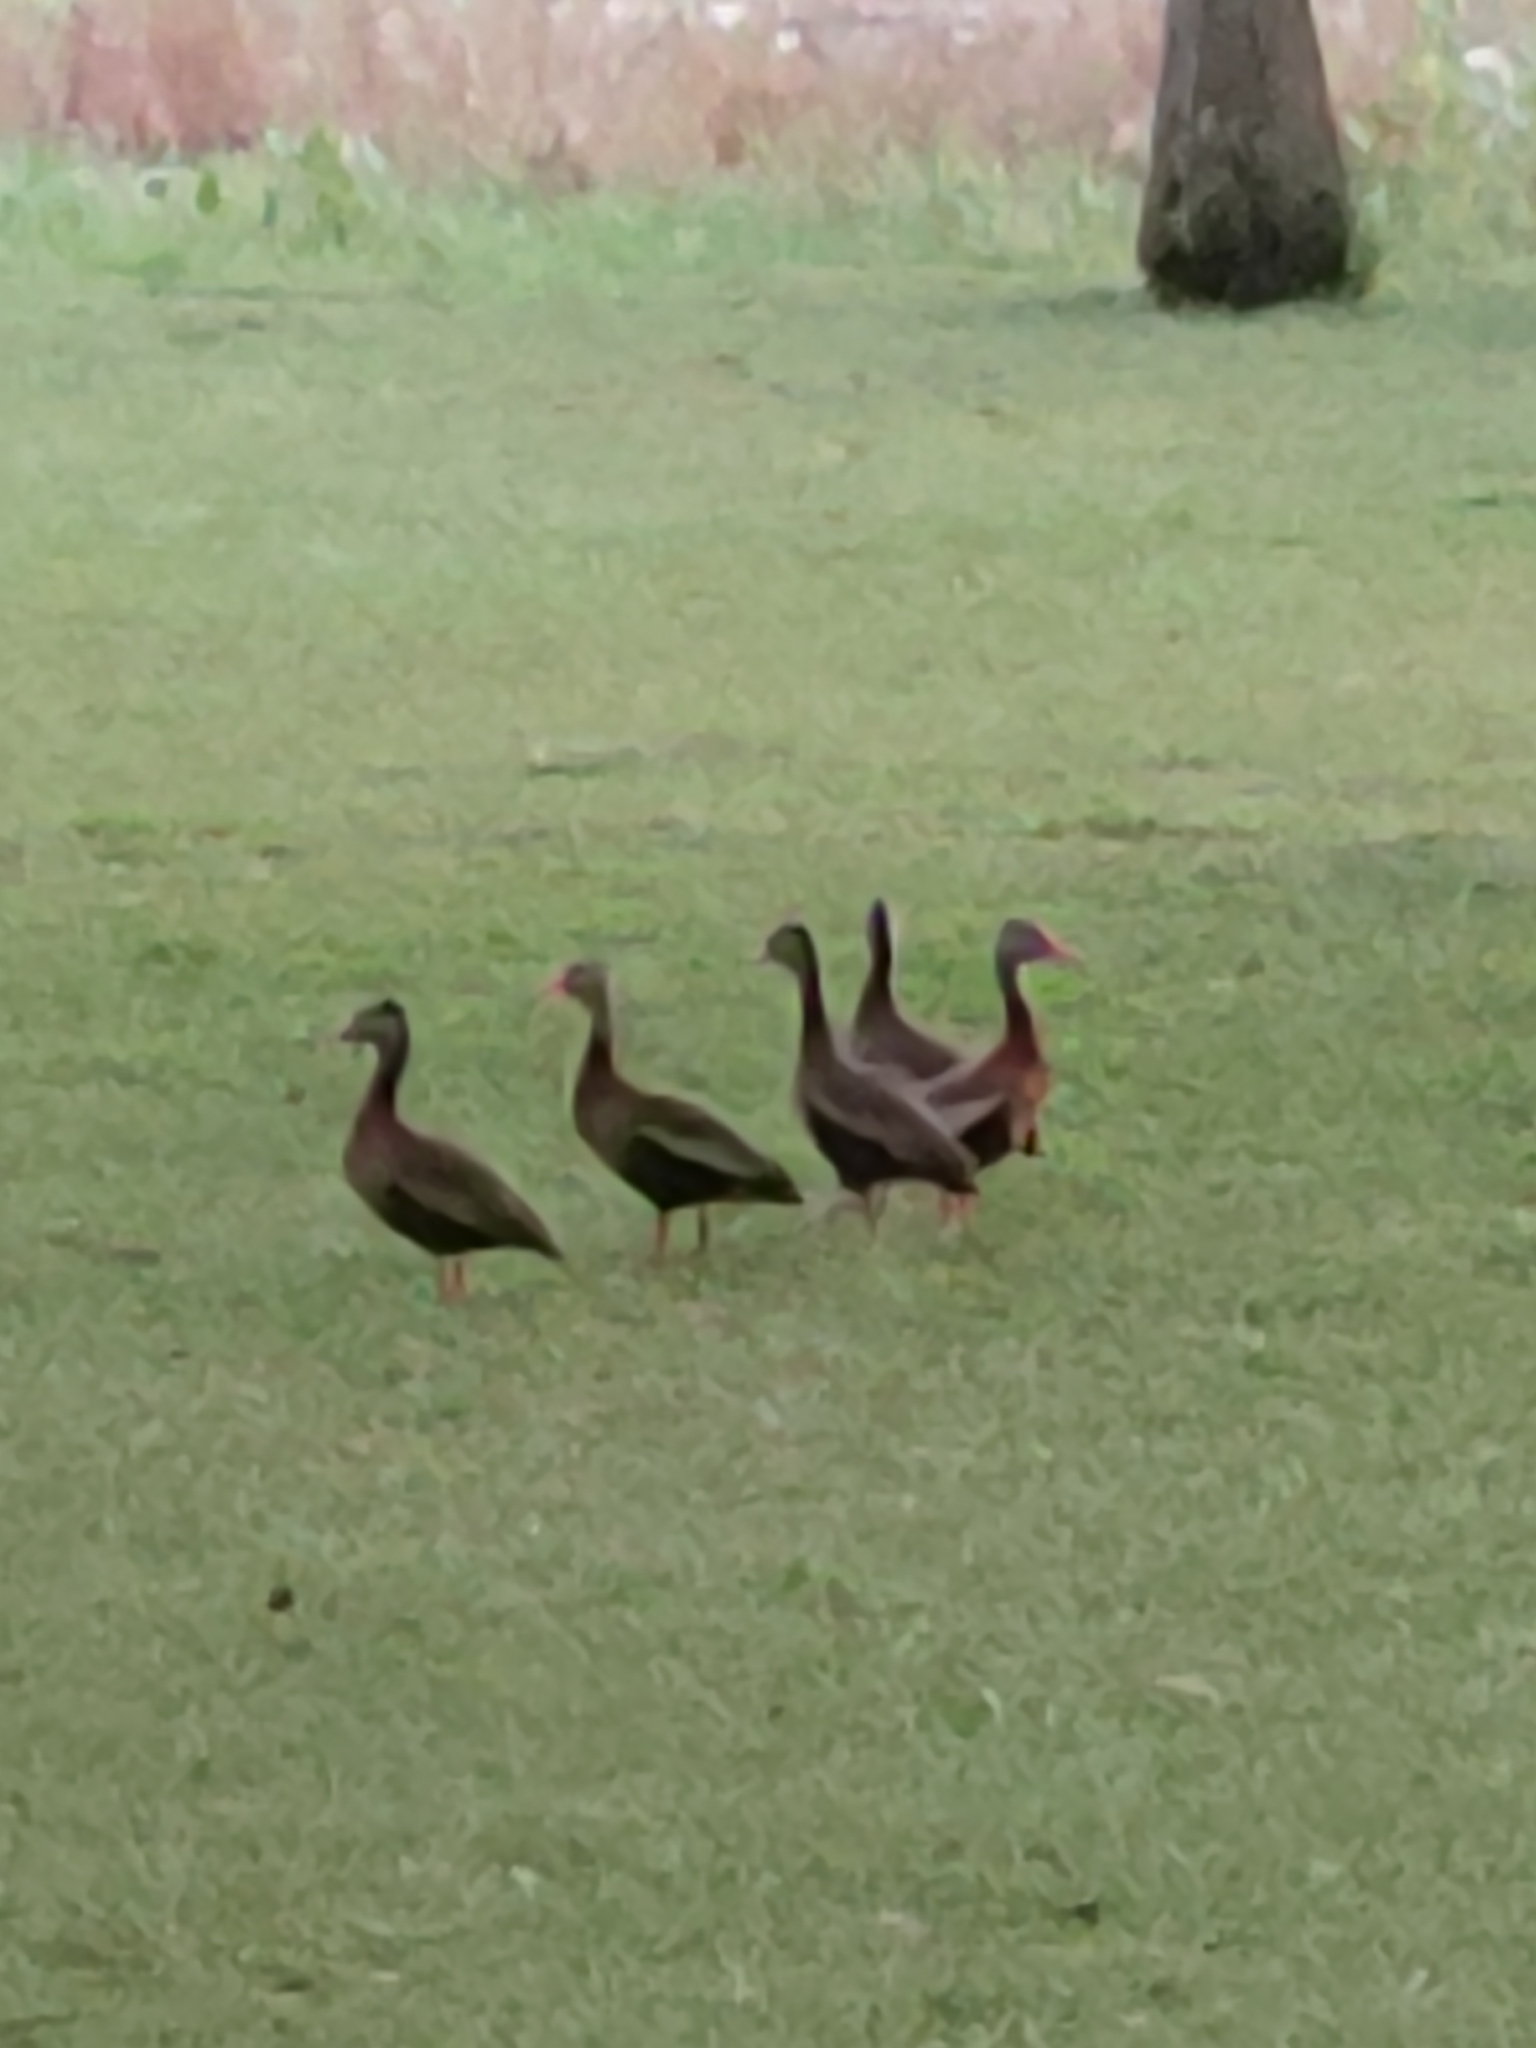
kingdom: Animalia
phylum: Chordata
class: Aves
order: Anseriformes
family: Anatidae
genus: Dendrocygna
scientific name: Dendrocygna autumnalis
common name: Black-bellied whistling duck
